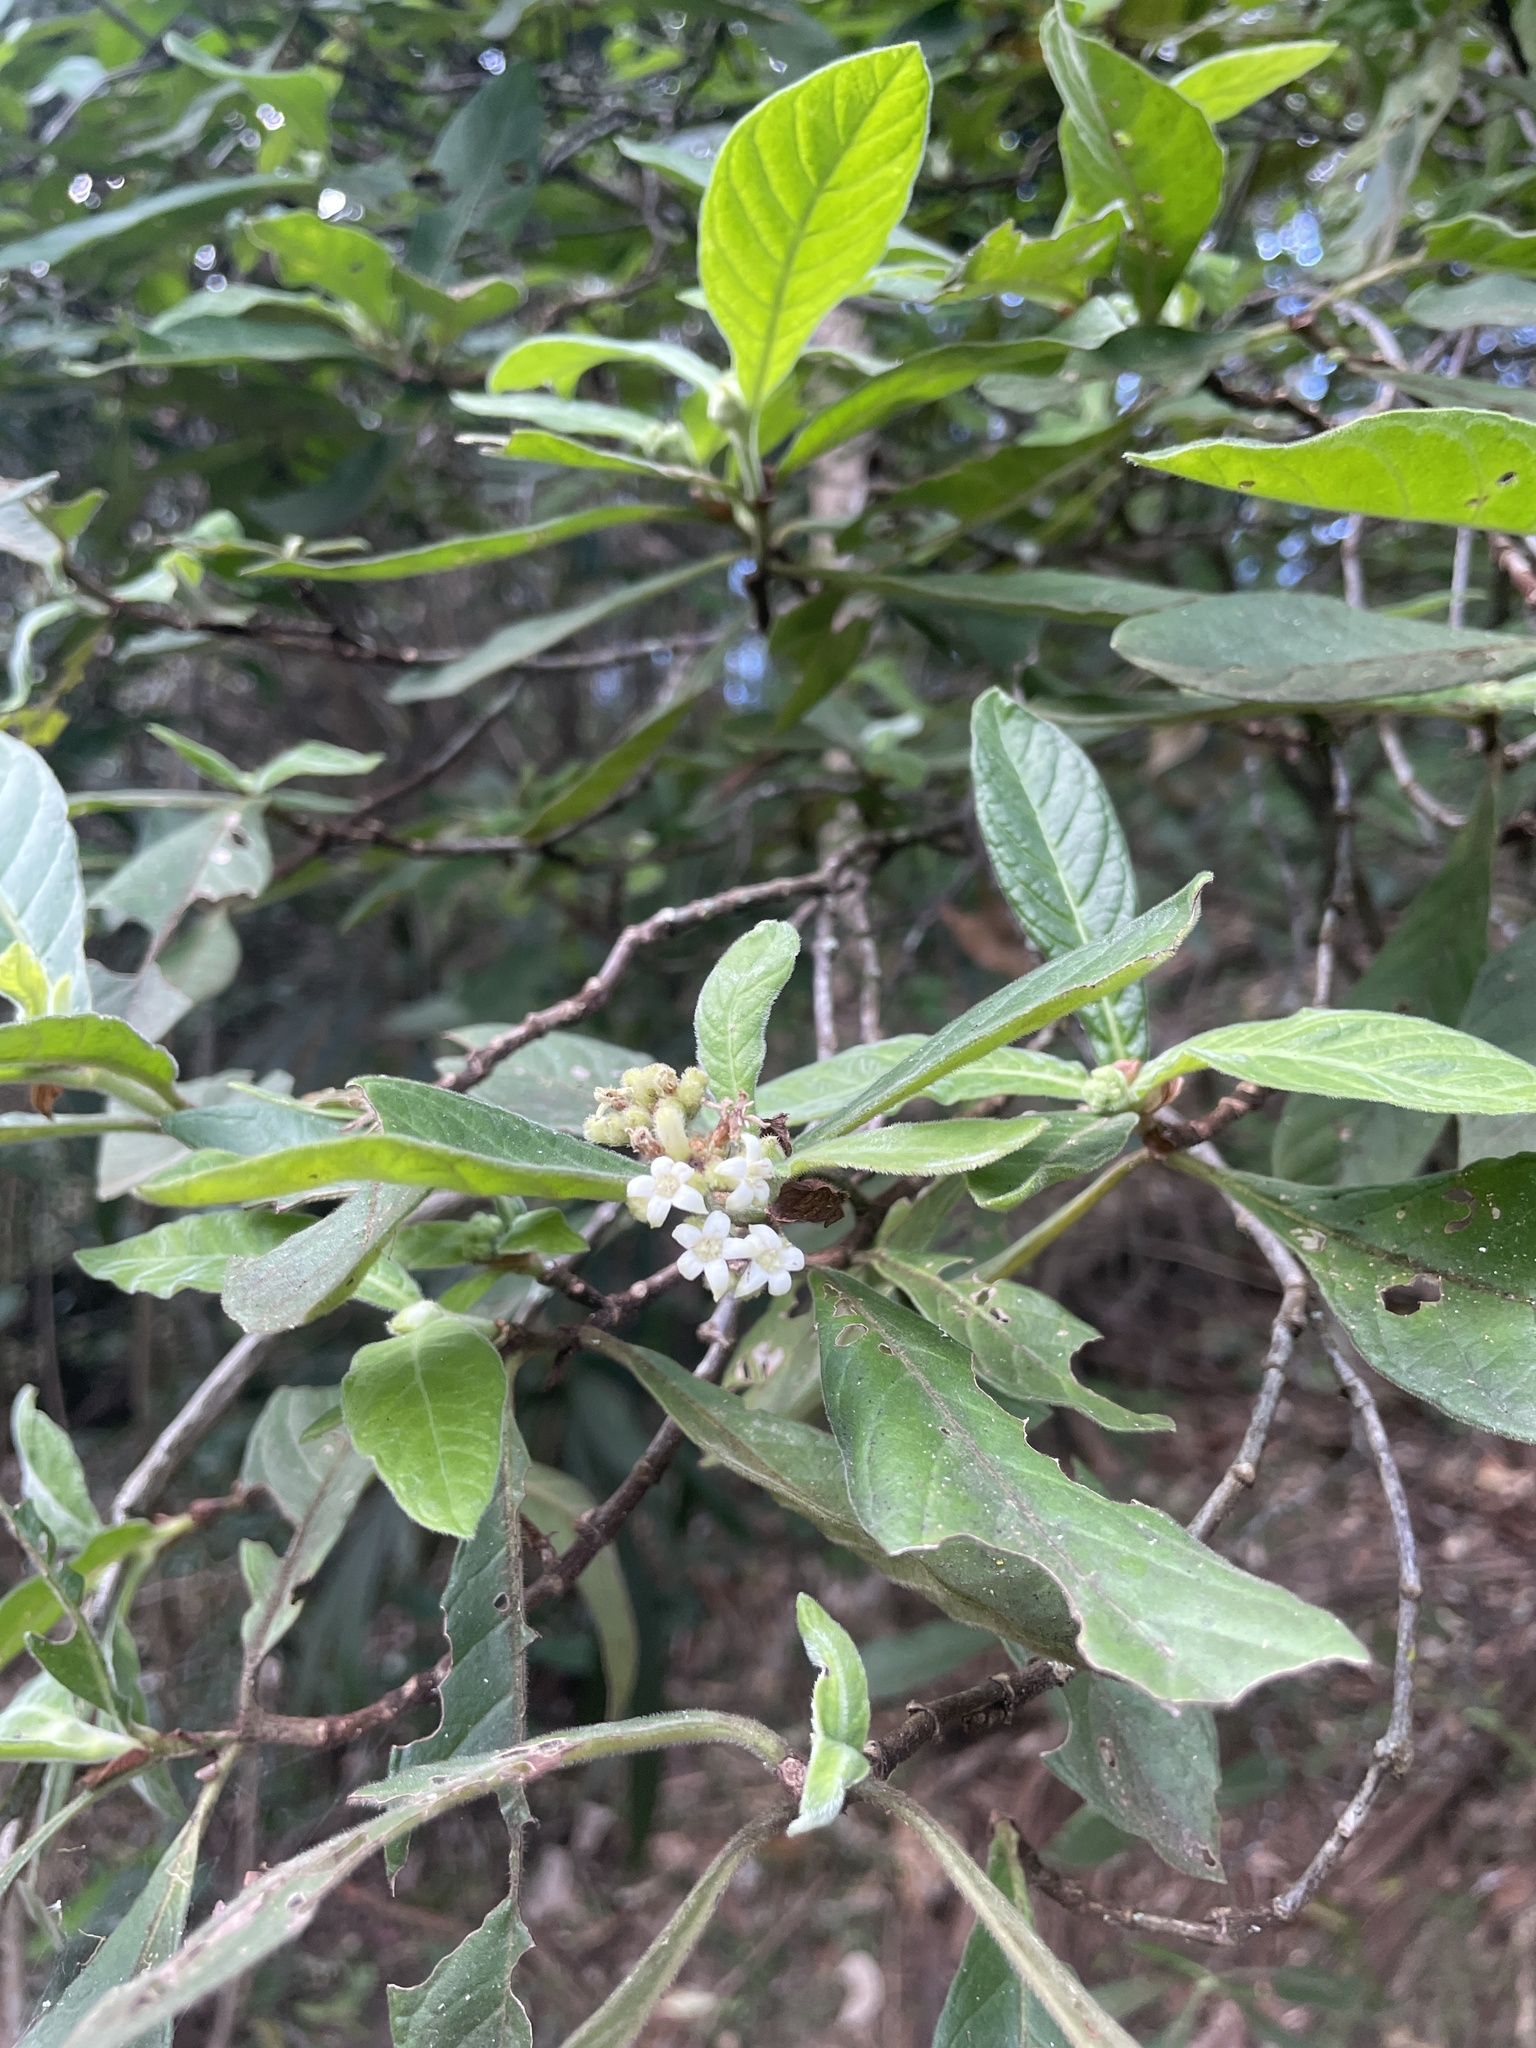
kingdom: Plantae
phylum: Tracheophyta
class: Magnoliopsida
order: Gentianales
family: Rubiaceae
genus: Psychotria
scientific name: Psychotria loniceroides
